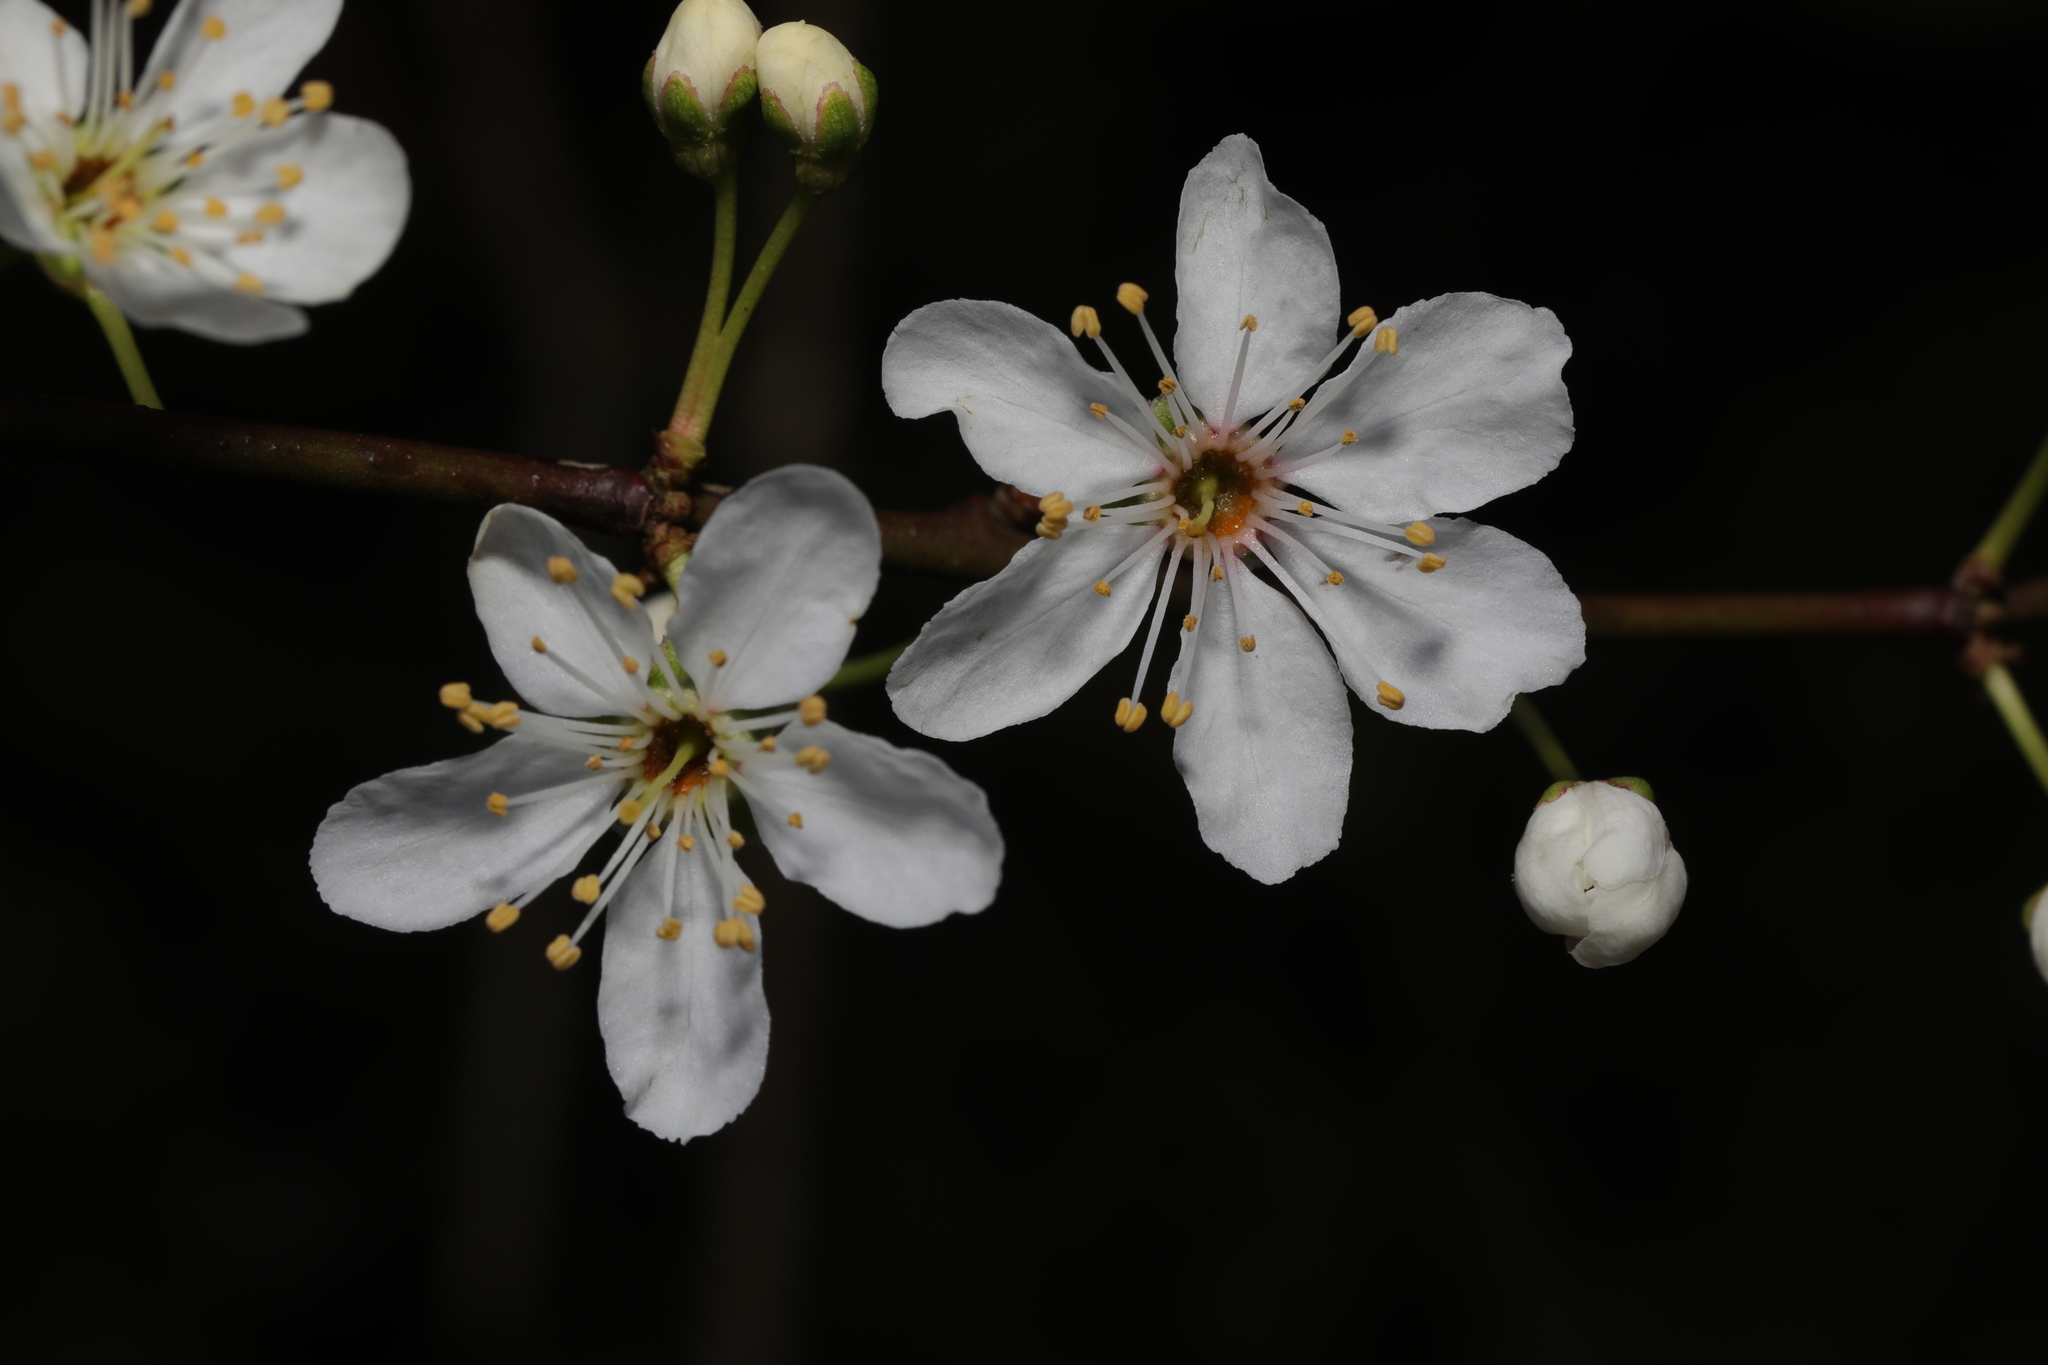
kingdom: Plantae
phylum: Tracheophyta
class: Magnoliopsida
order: Rosales
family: Rosaceae
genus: Prunus
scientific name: Prunus cerasifera
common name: Cherry plum
